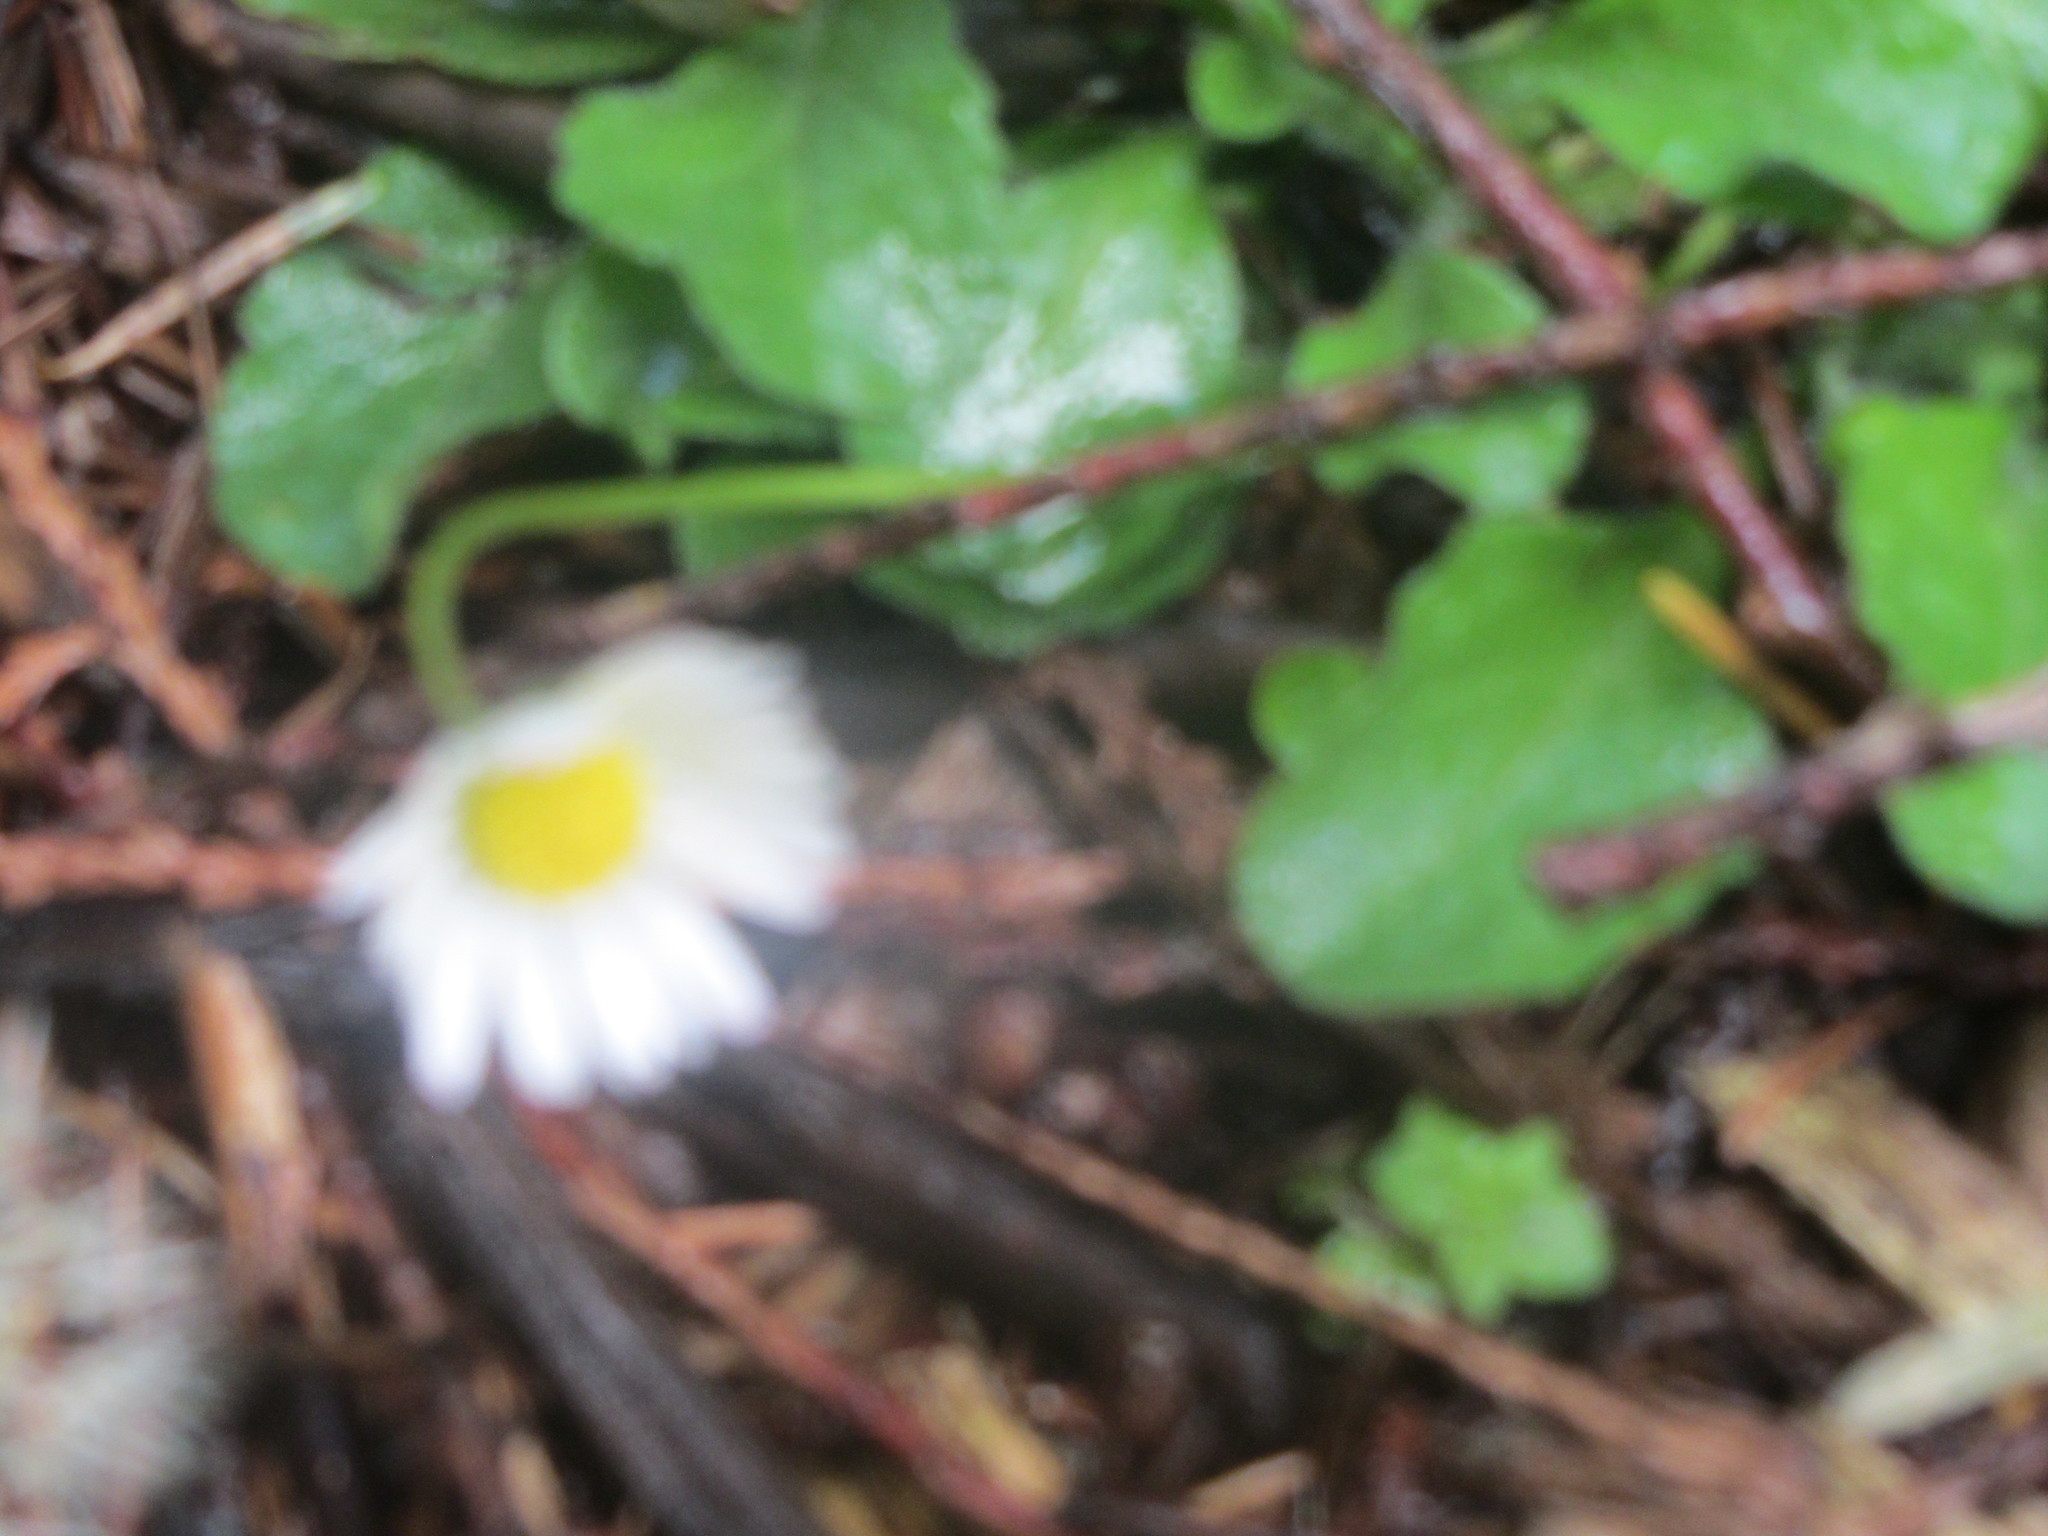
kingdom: Plantae
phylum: Tracheophyta
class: Magnoliopsida
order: Asterales
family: Asteraceae
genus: Bellis
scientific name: Bellis perennis
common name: Lawndaisy
